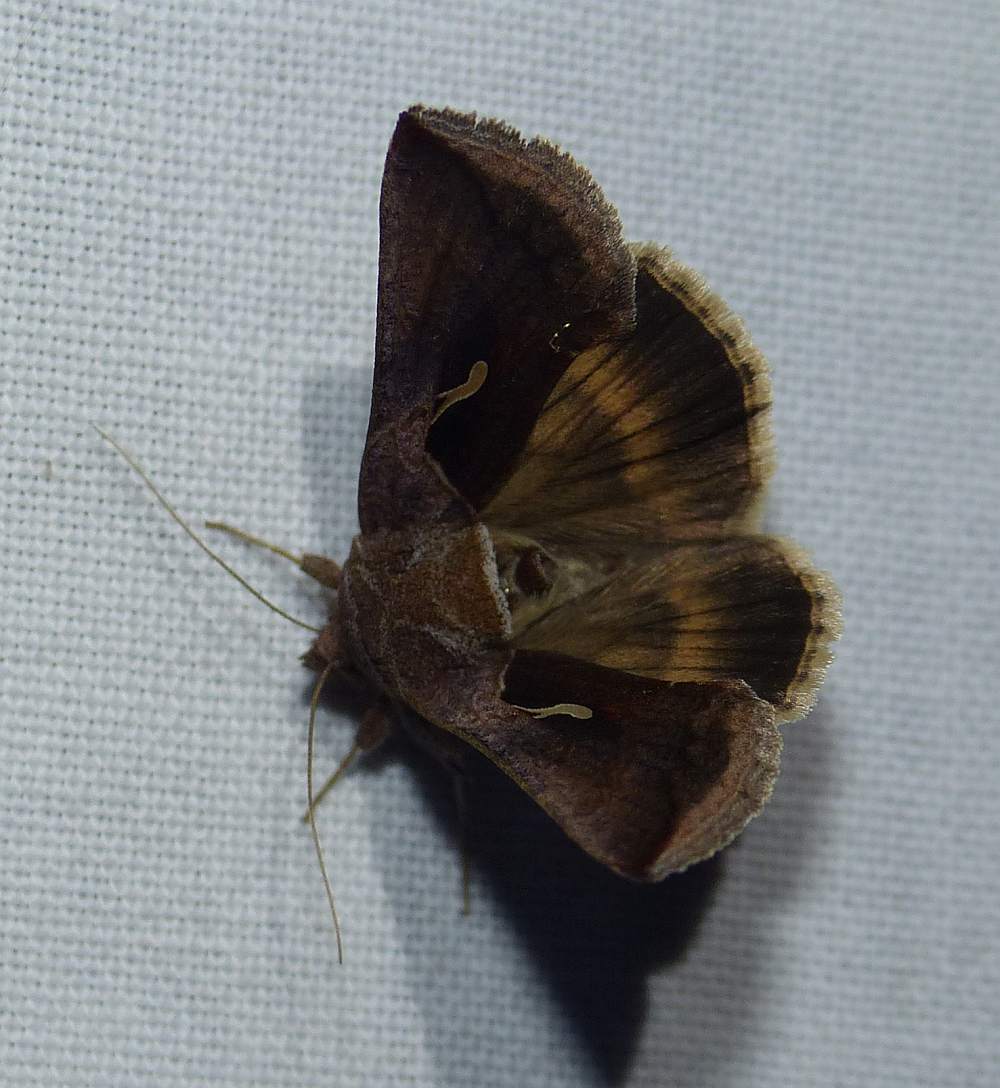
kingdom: Animalia
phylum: Arthropoda
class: Insecta
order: Lepidoptera
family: Noctuidae
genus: Anagrapha
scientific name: Anagrapha falcifera
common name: Celery looper
